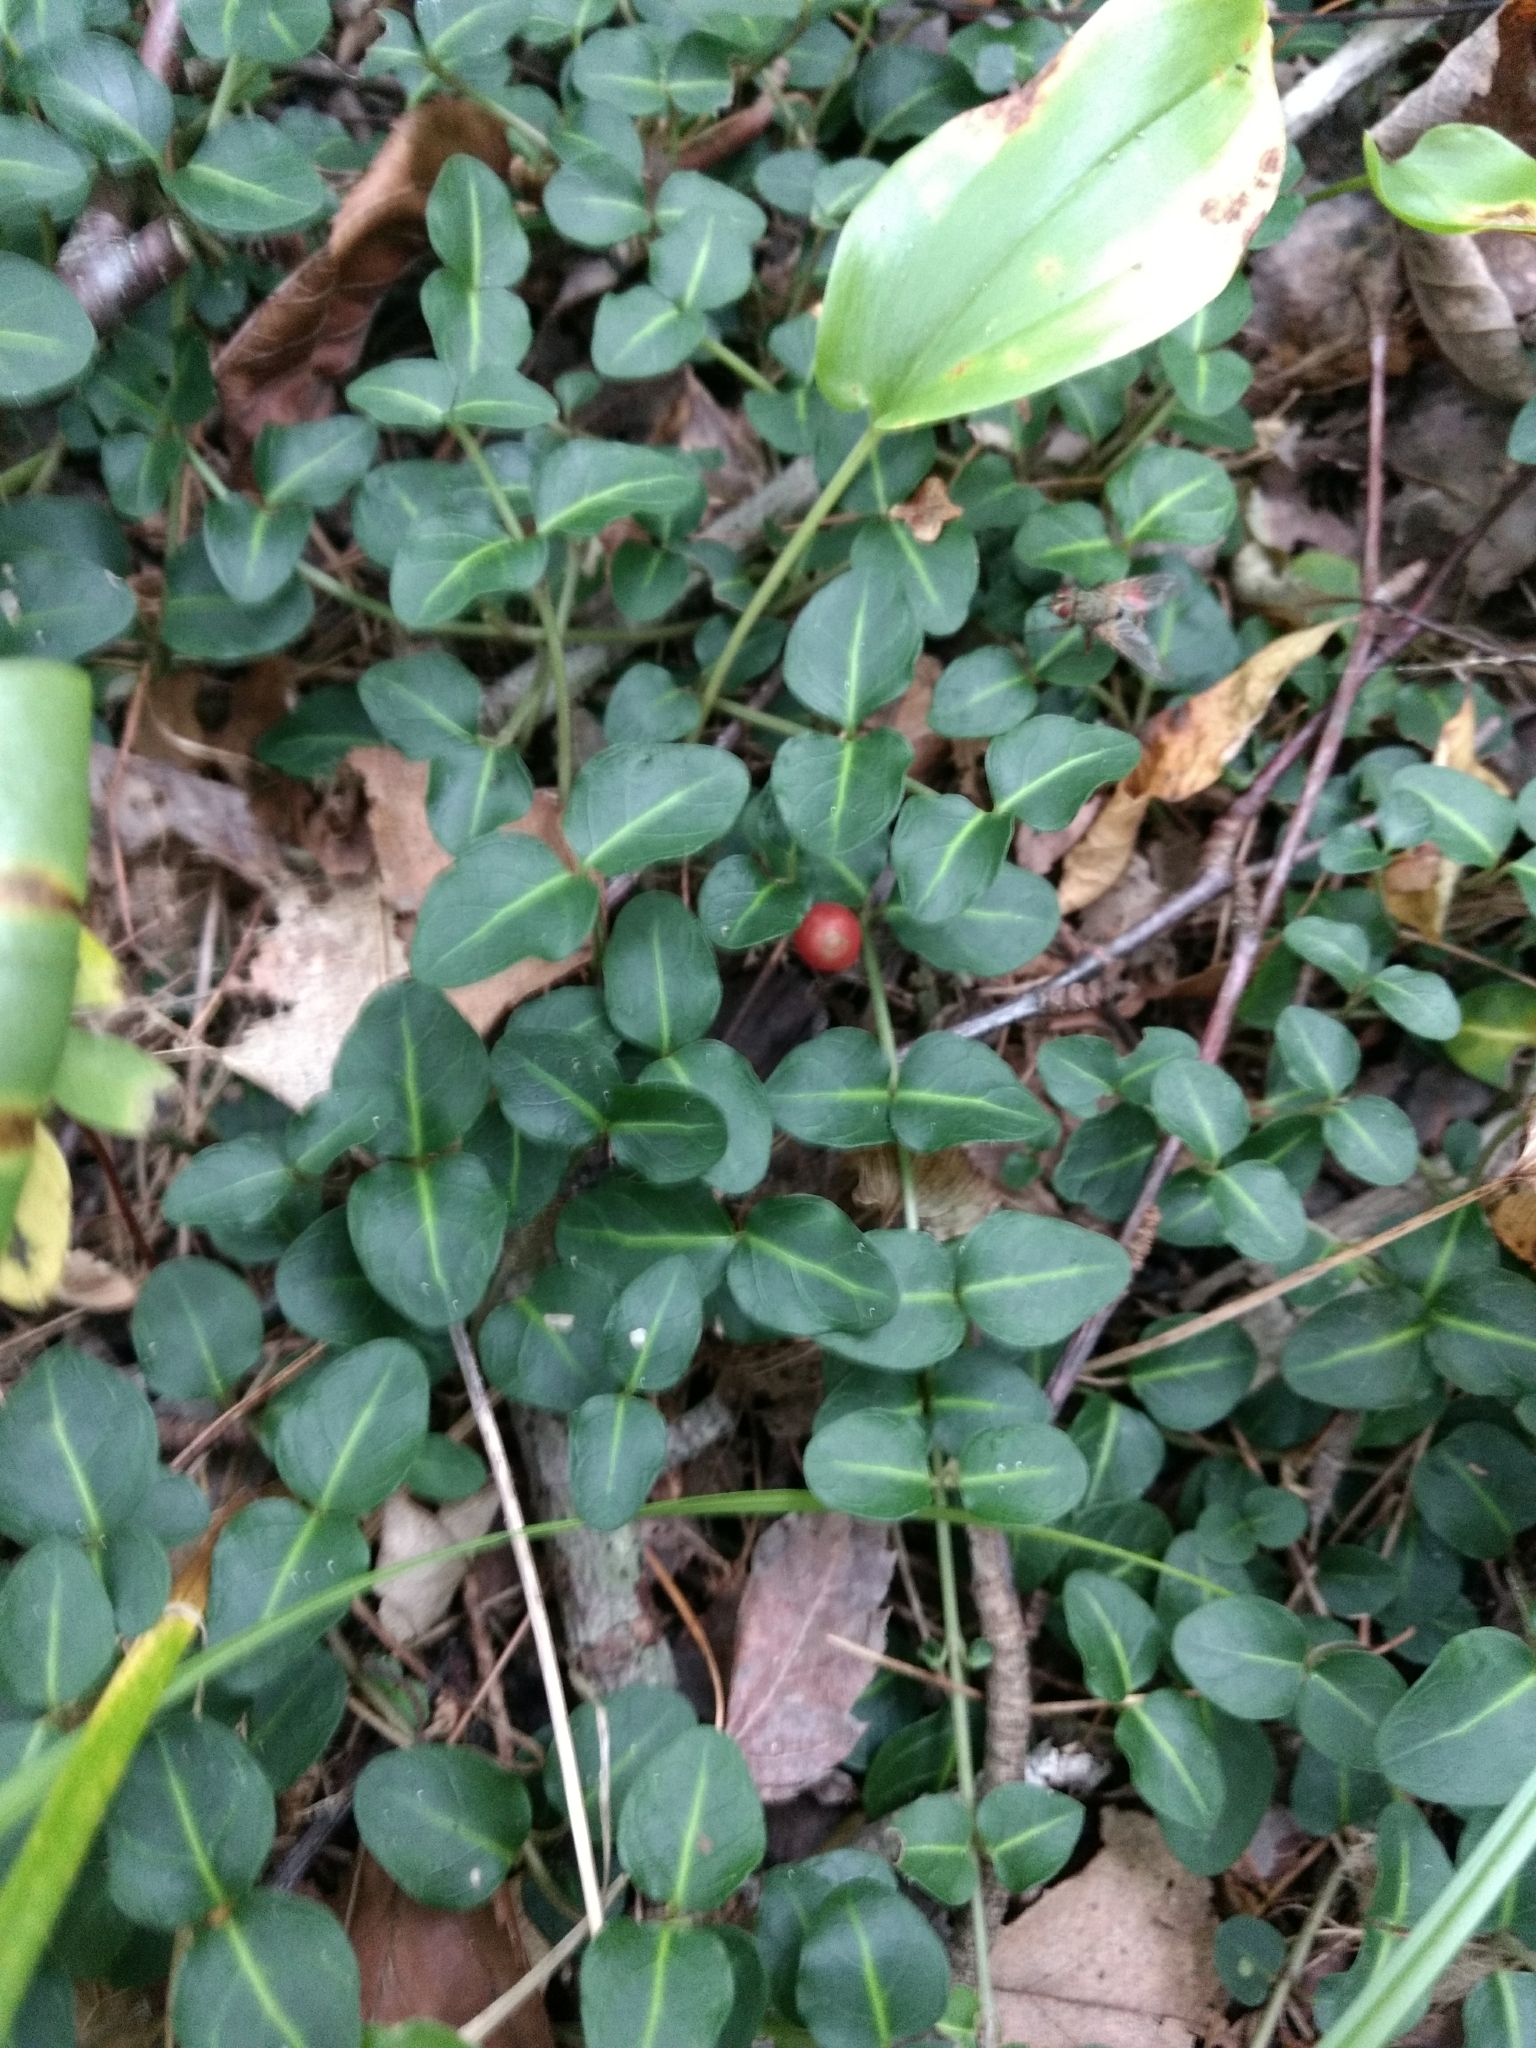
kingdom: Plantae
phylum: Tracheophyta
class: Magnoliopsida
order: Gentianales
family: Rubiaceae
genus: Mitchella
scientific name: Mitchella repens
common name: Partridge-berry
